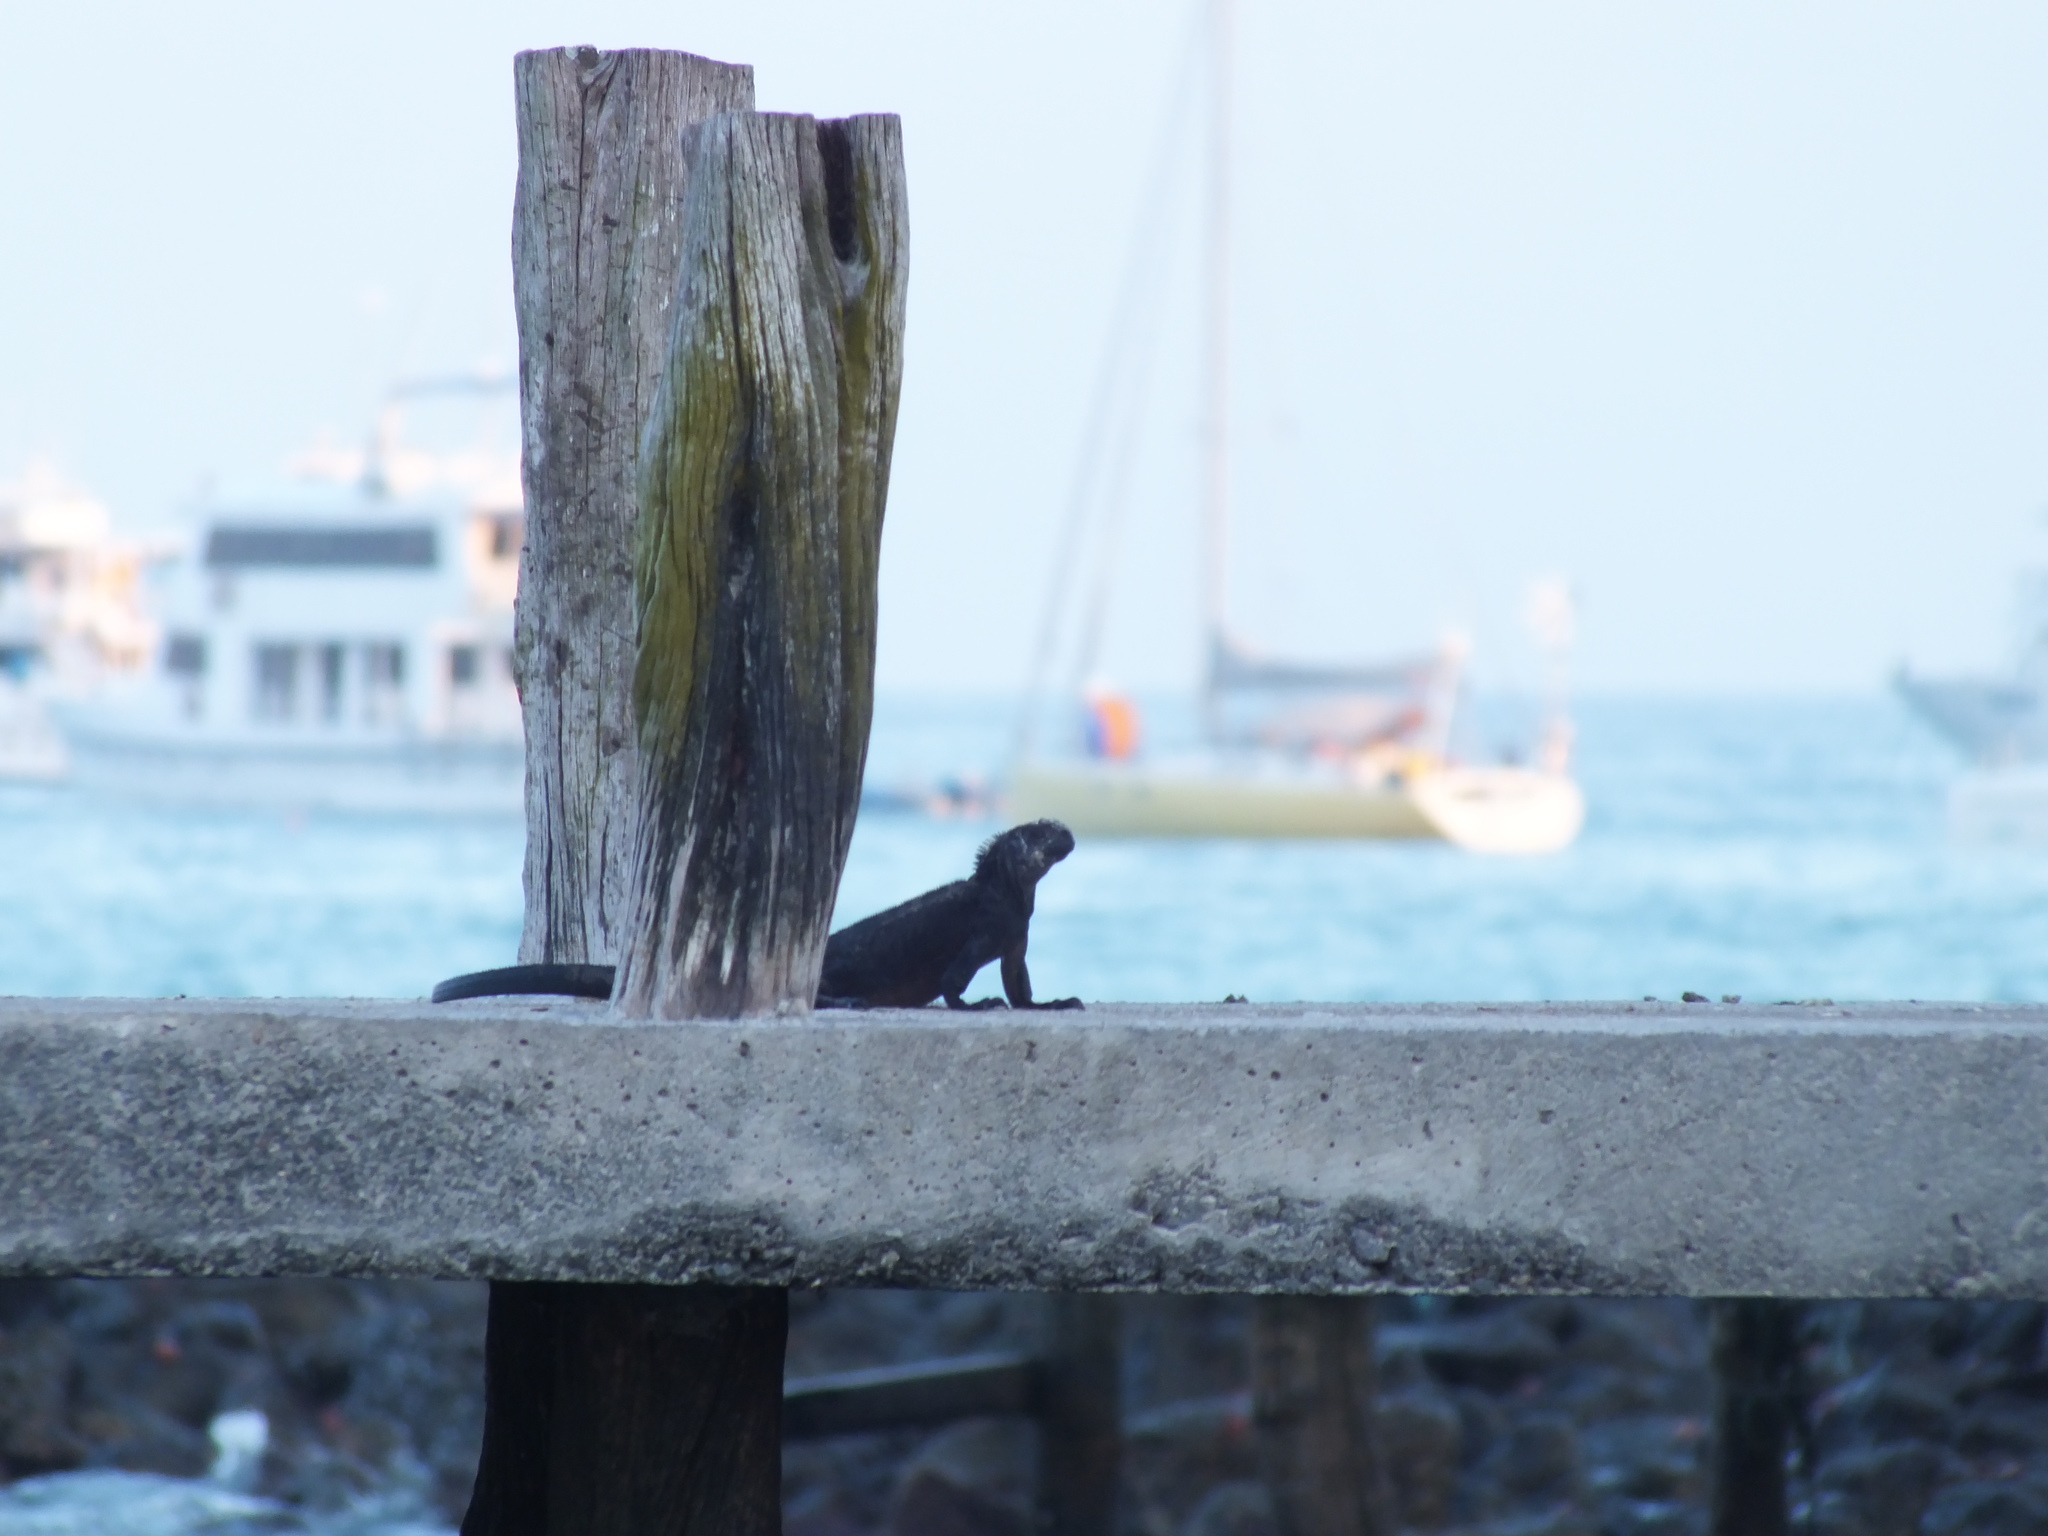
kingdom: Animalia
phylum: Chordata
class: Squamata
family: Iguanidae
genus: Amblyrhynchus
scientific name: Amblyrhynchus cristatus
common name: Marine iguana
